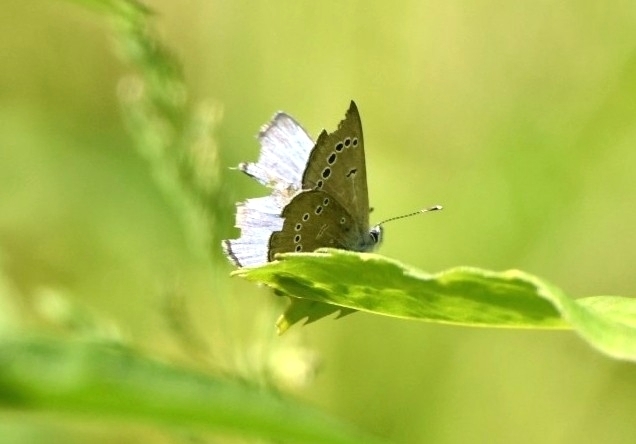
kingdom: Animalia
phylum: Arthropoda
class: Insecta
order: Lepidoptera
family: Lycaenidae
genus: Glaucopsyche
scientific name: Glaucopsyche lygdamus
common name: Silvery blue
